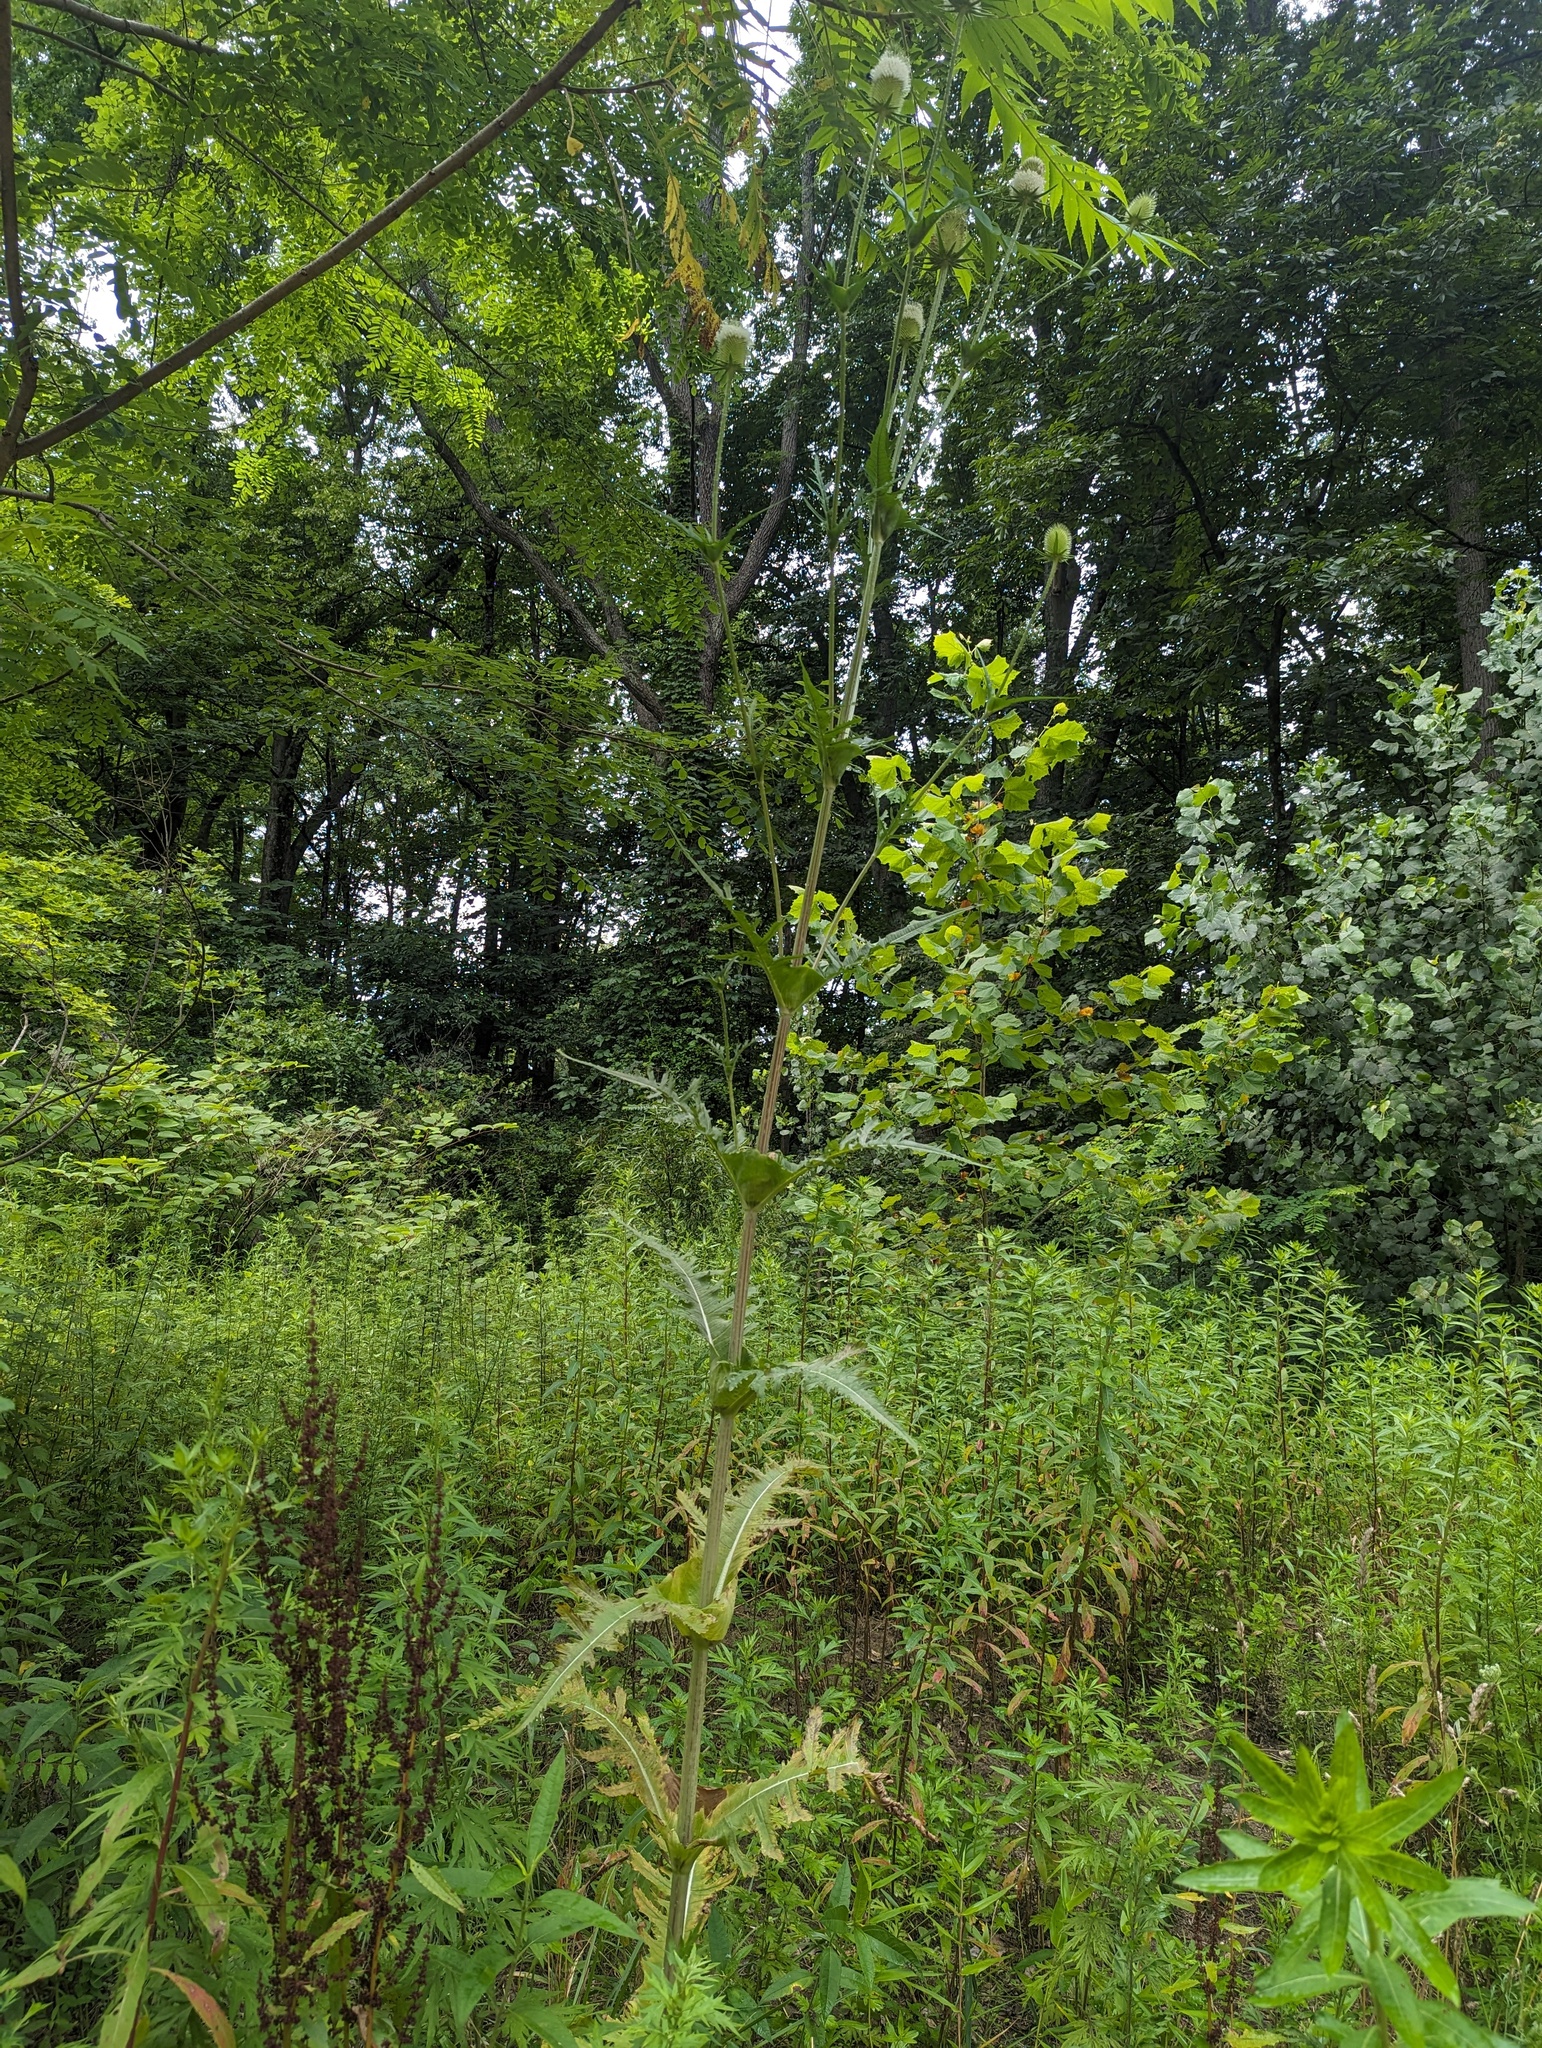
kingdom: Plantae
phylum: Tracheophyta
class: Magnoliopsida
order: Dipsacales
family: Caprifoliaceae
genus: Dipsacus
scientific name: Dipsacus laciniatus
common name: Cut-leaved teasel
